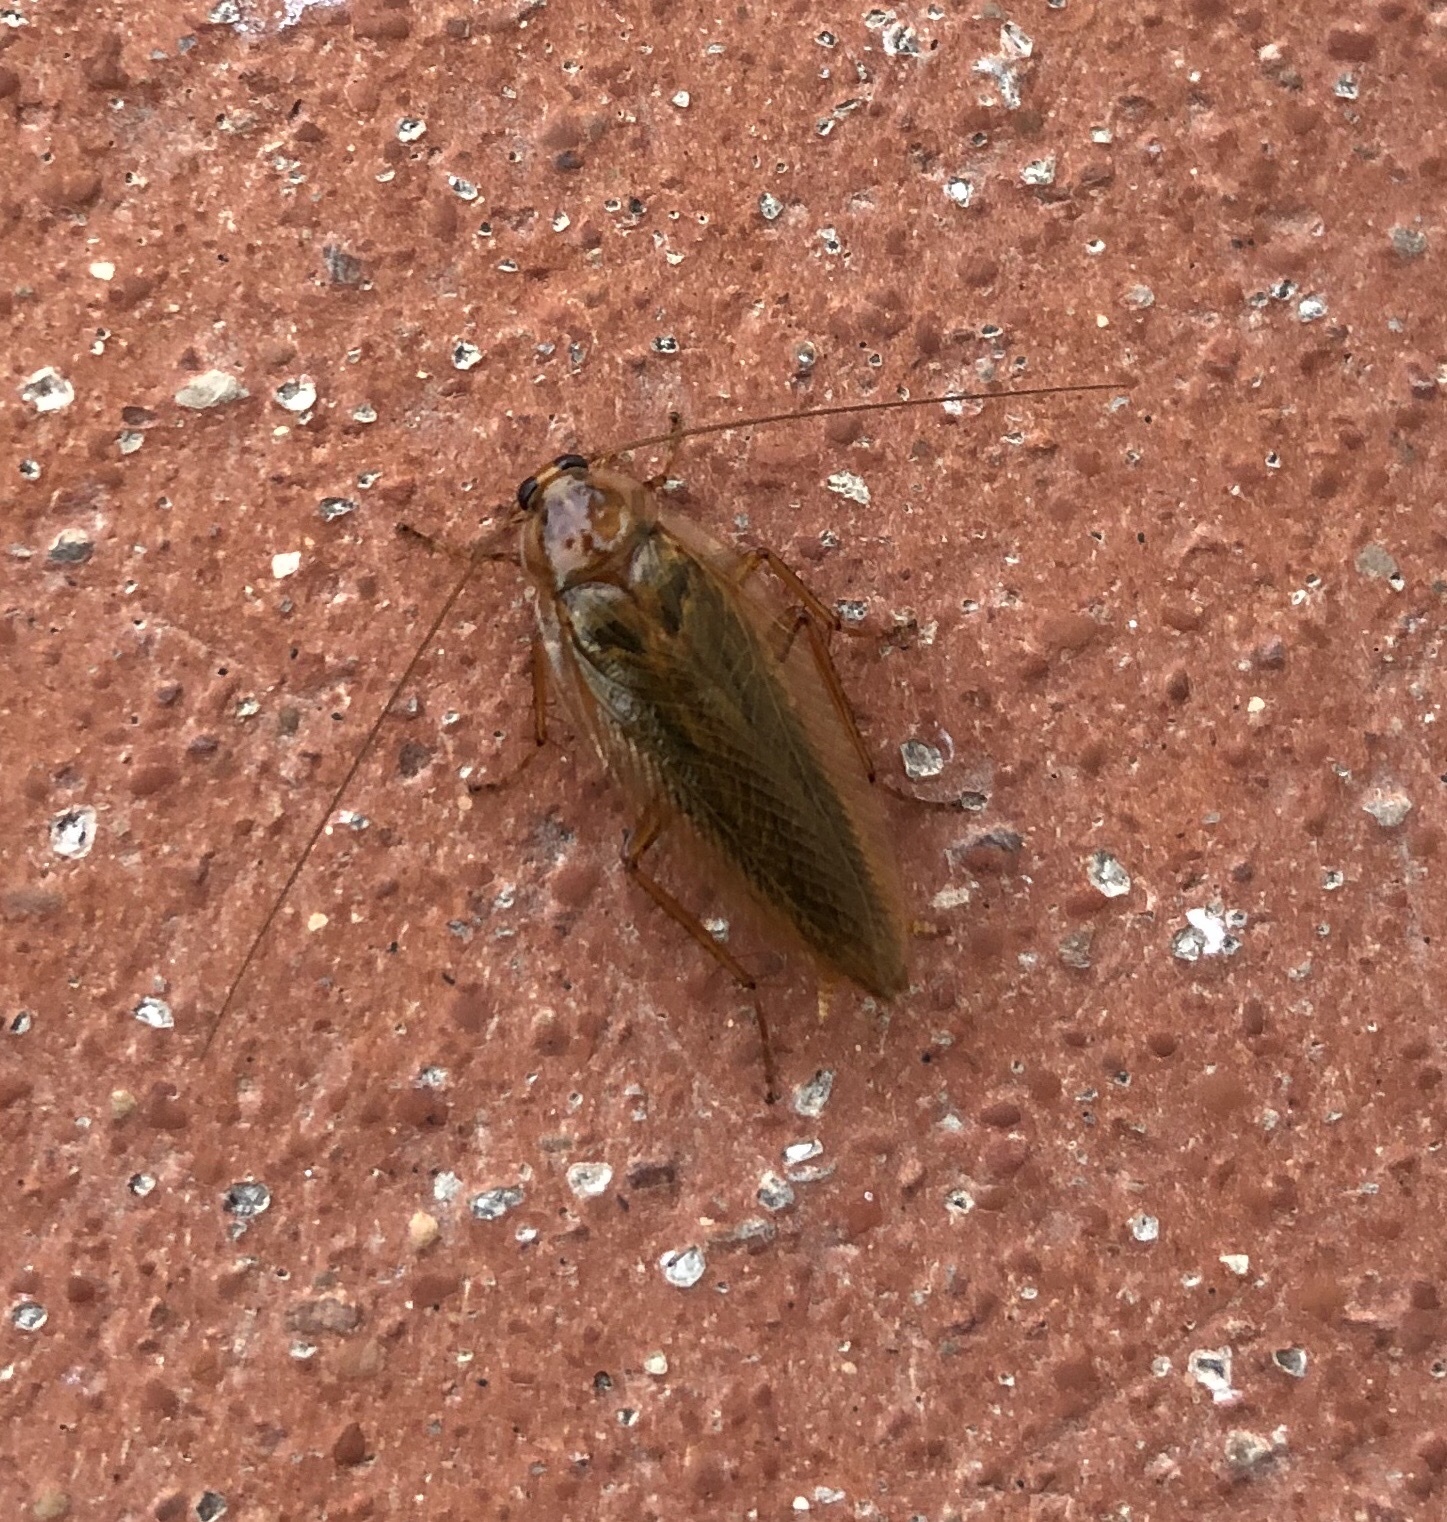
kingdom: Animalia
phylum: Arthropoda
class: Insecta
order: Blattodea
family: Ectobiidae
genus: Ectobius
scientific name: Ectobius vittiventris
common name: Garden cockroach
